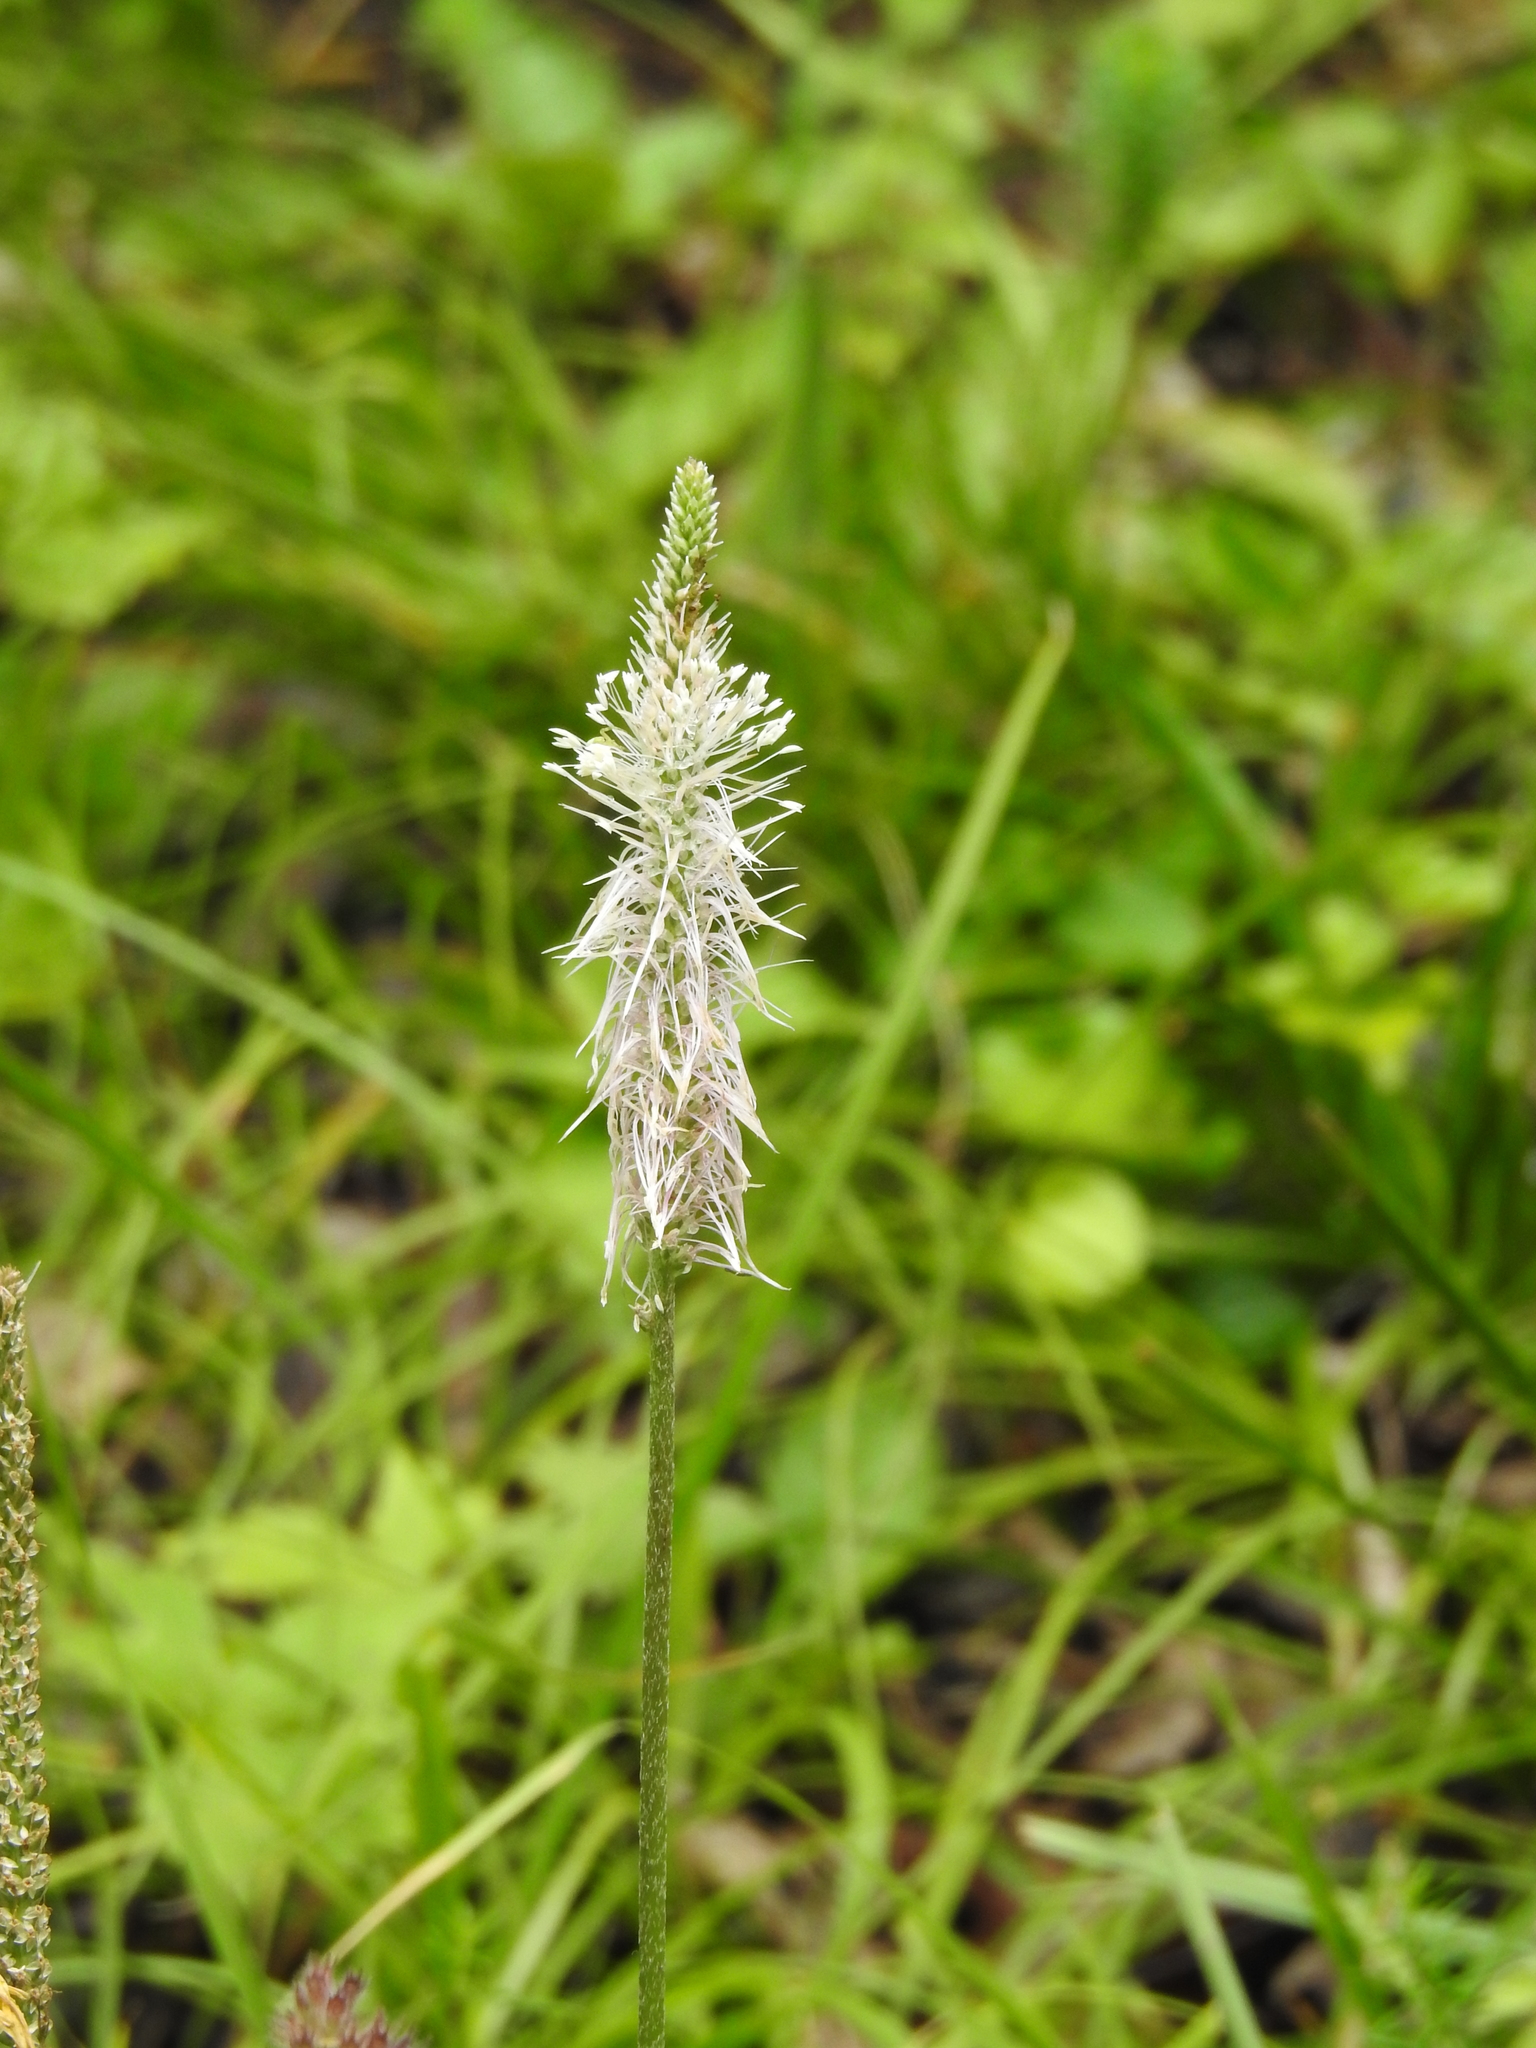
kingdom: Plantae
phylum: Tracheophyta
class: Magnoliopsida
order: Lamiales
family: Plantaginaceae
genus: Plantago
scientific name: Plantago media
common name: Hoary plantain
